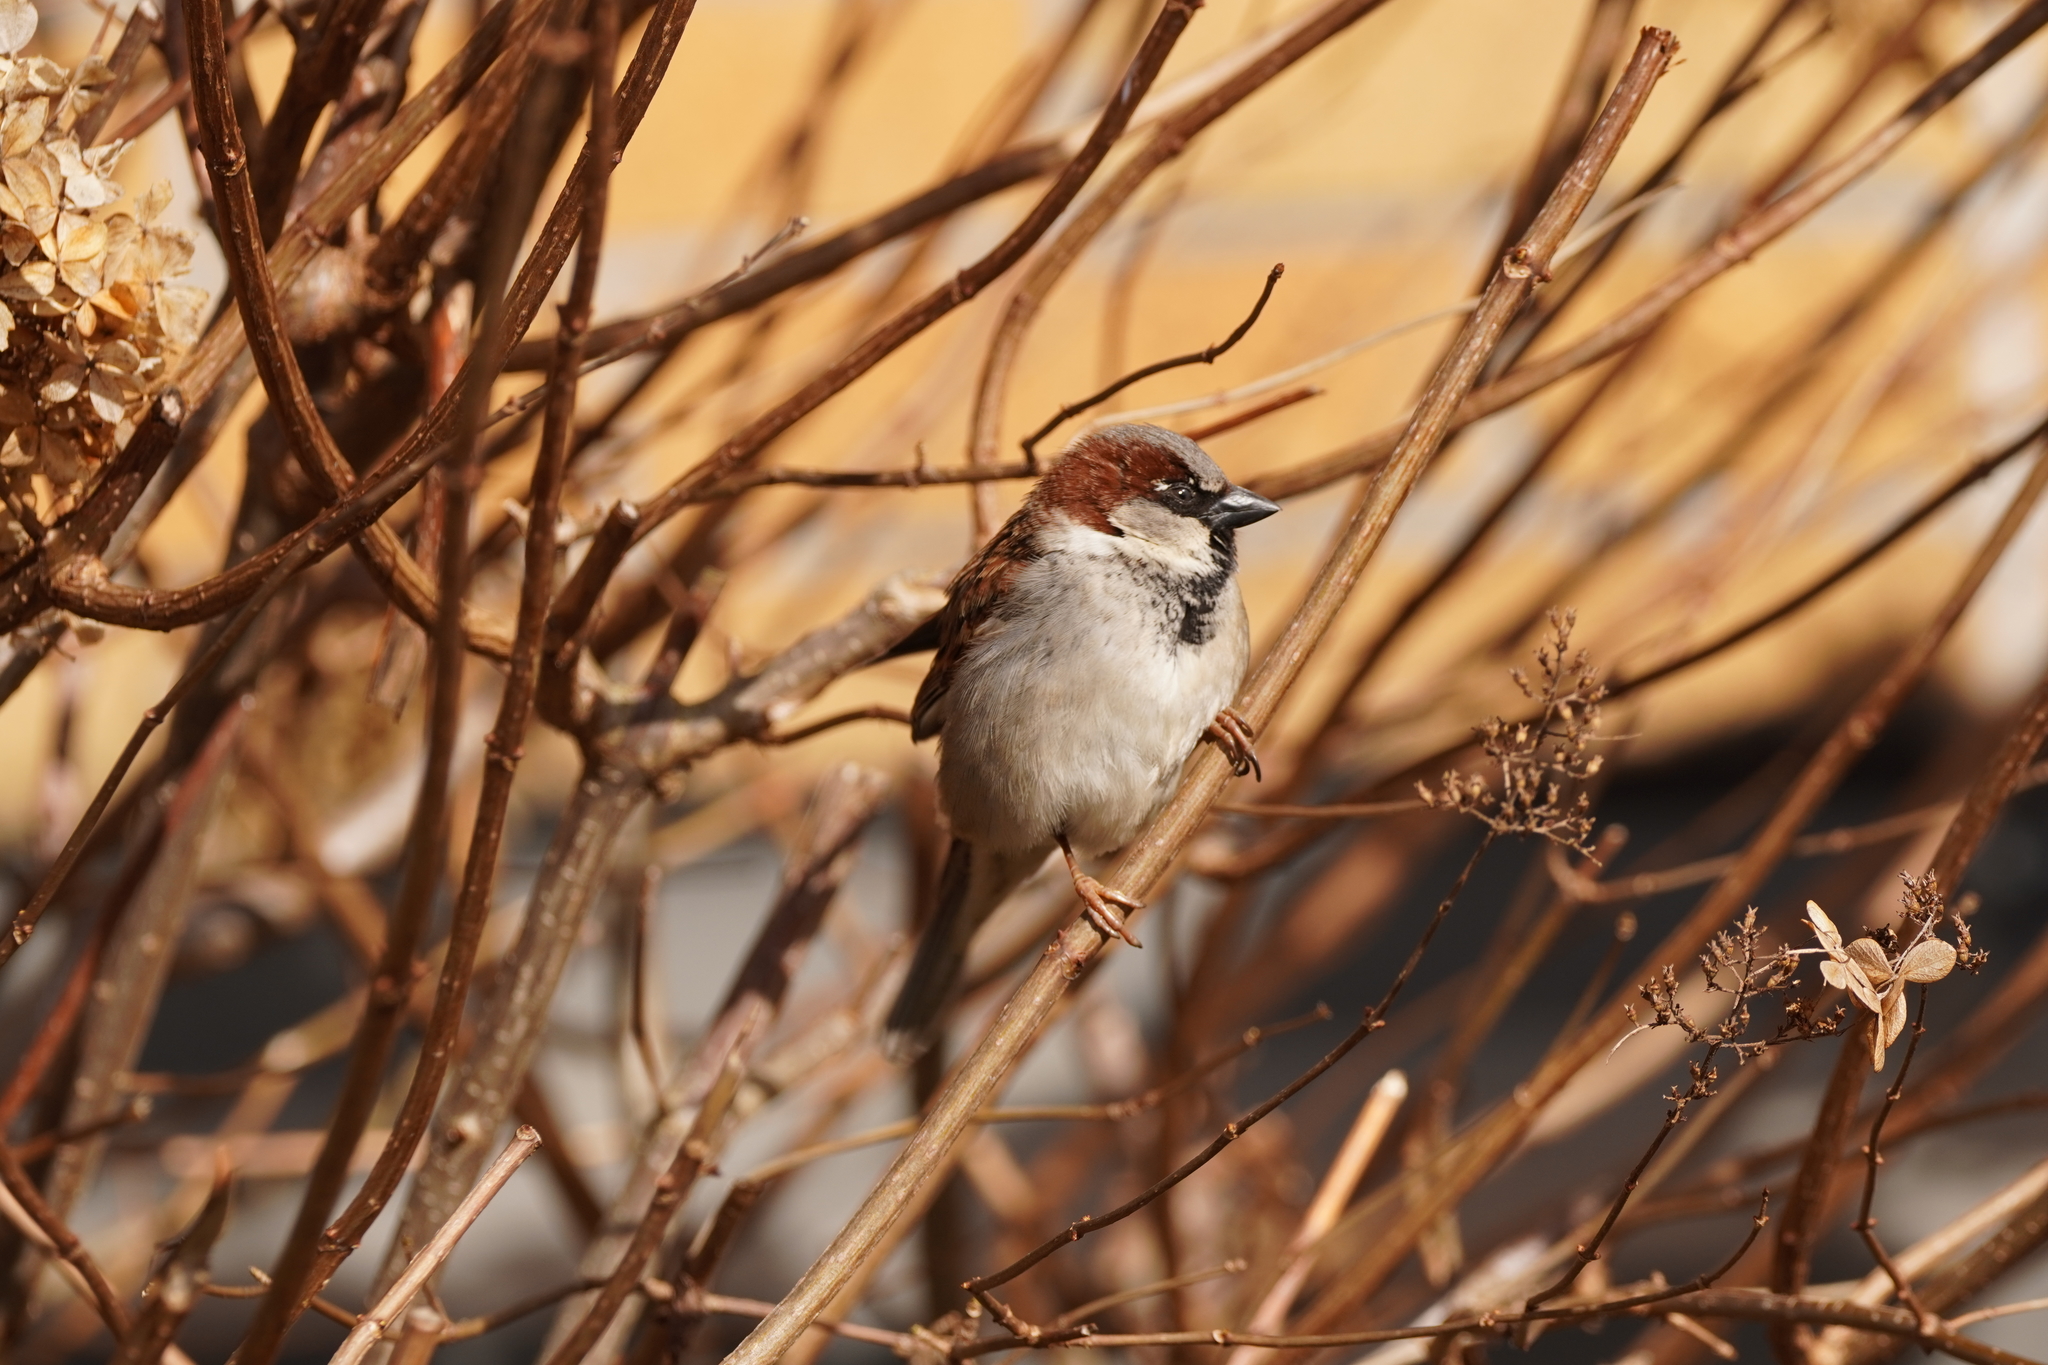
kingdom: Animalia
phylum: Chordata
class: Aves
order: Passeriformes
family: Passeridae
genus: Passer
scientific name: Passer domesticus
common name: House sparrow
